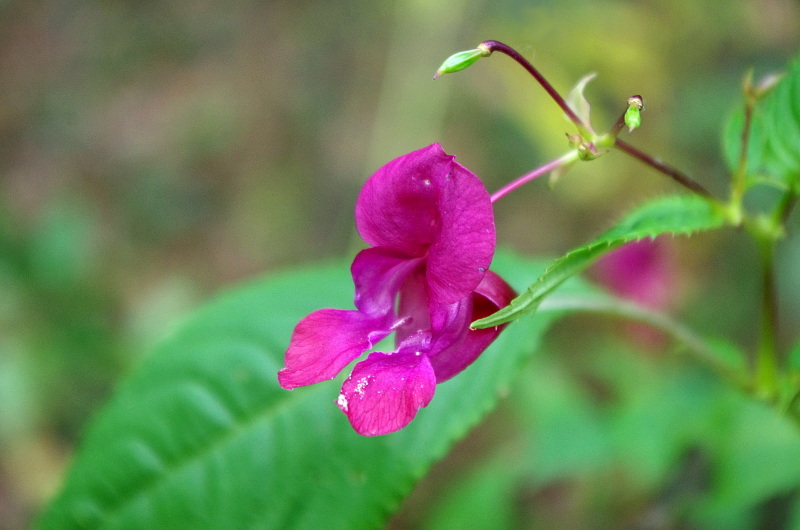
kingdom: Plantae
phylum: Tracheophyta
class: Magnoliopsida
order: Ericales
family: Balsaminaceae
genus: Impatiens
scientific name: Impatiens glandulifera
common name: Himalayan balsam
